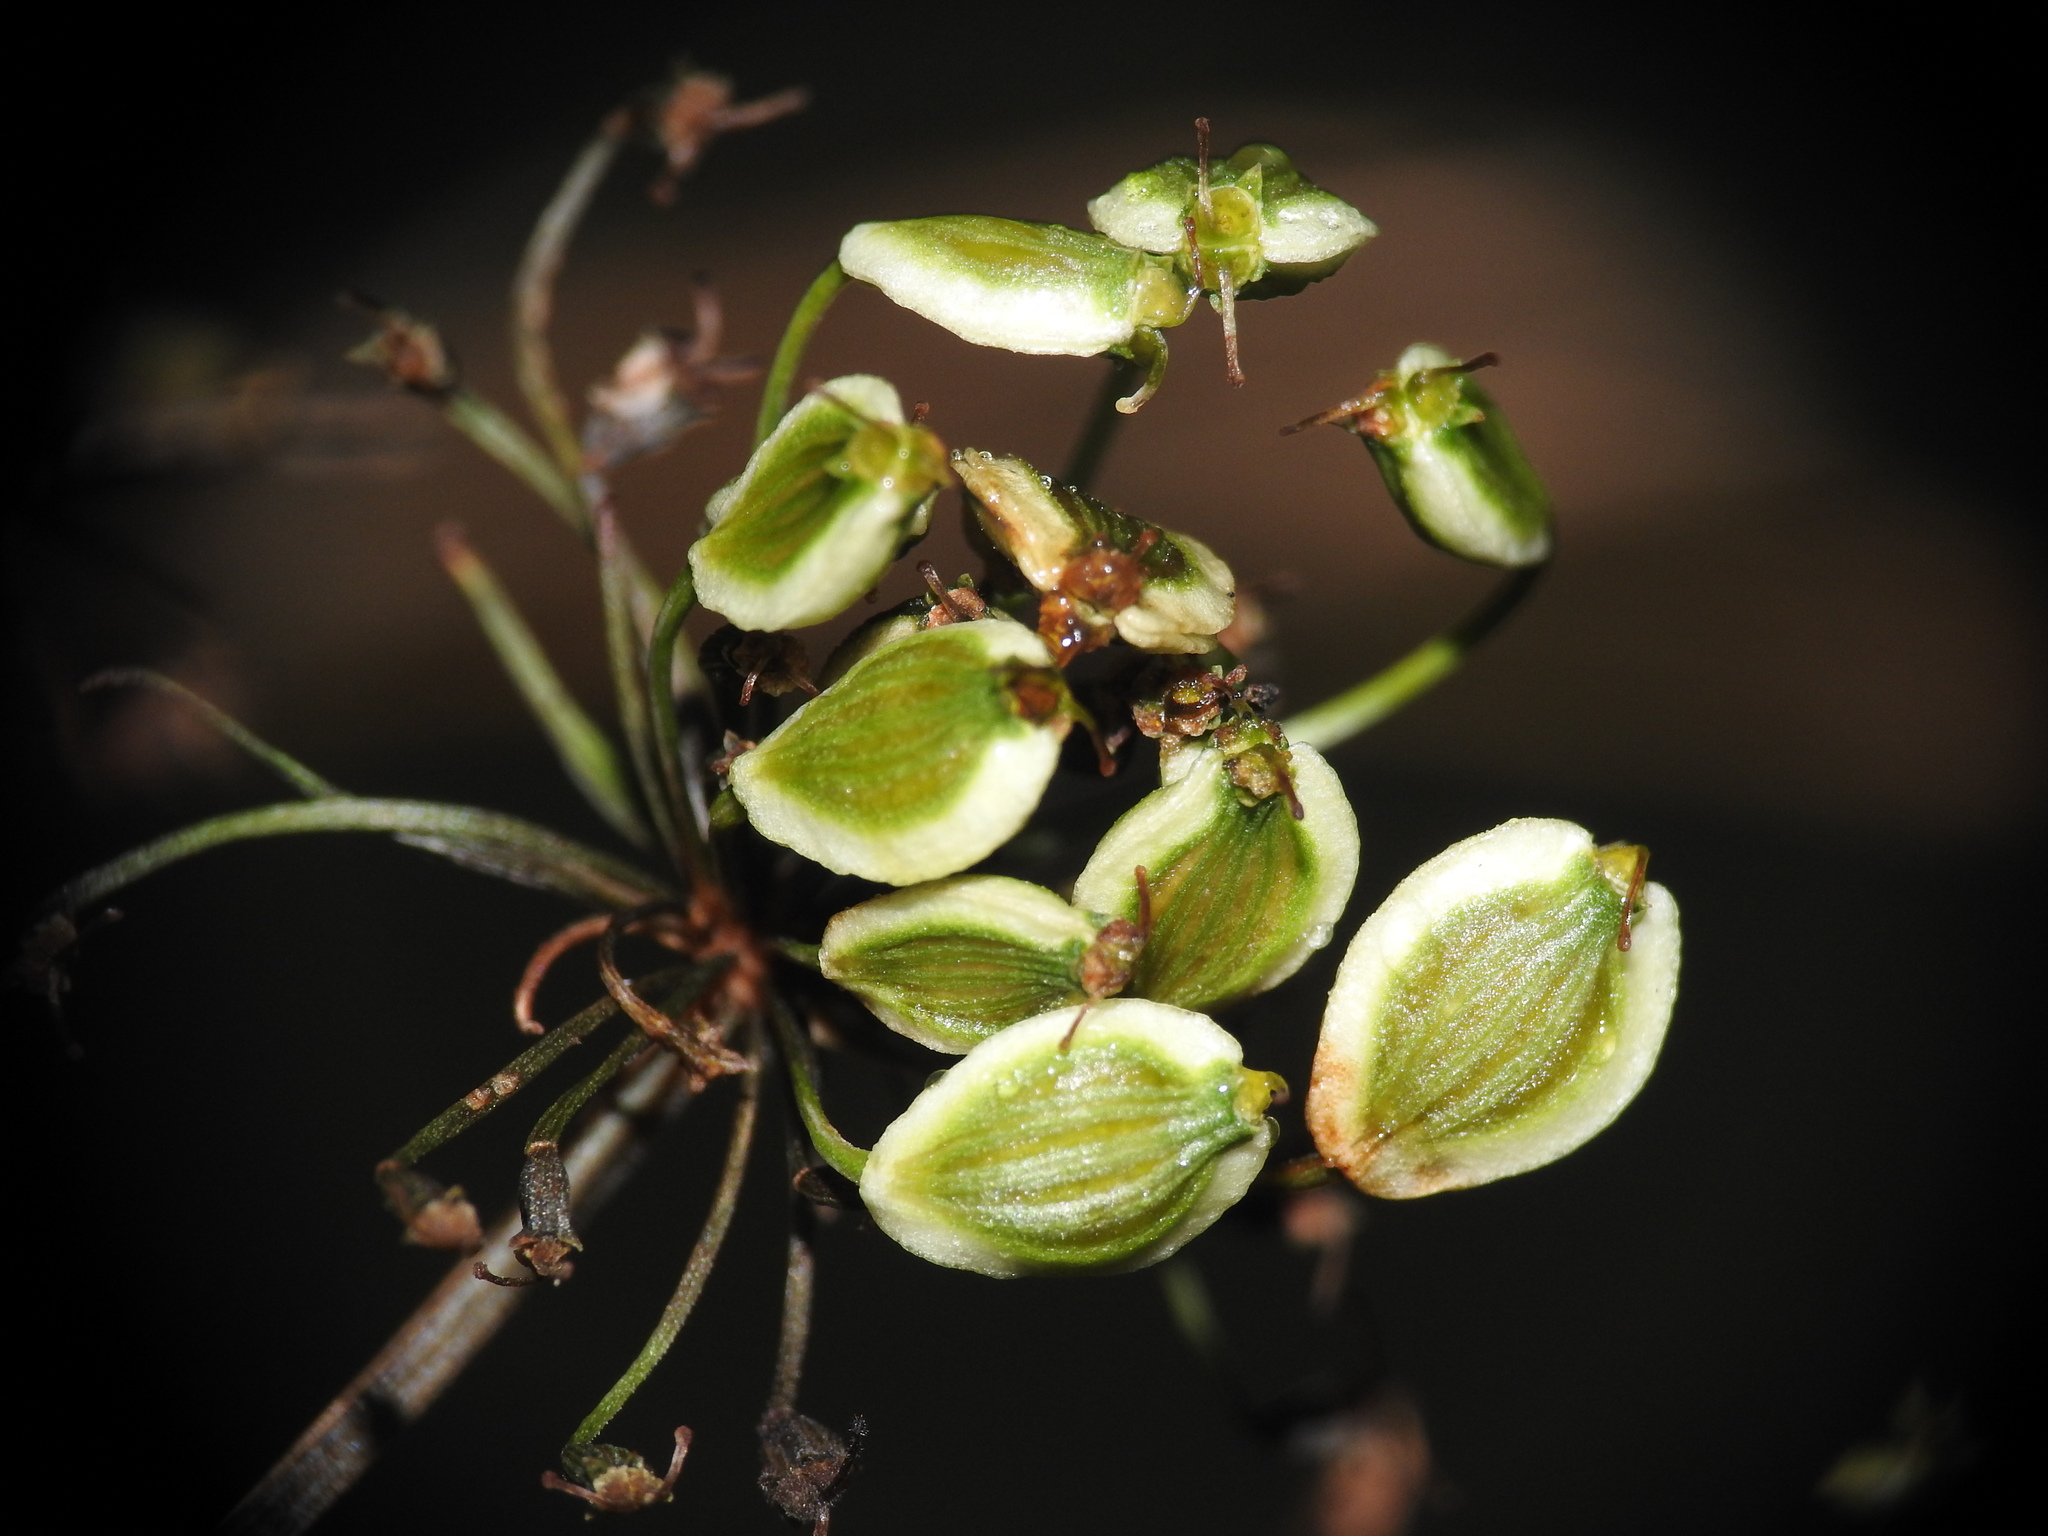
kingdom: Plantae
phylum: Tracheophyta
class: Magnoliopsida
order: Apiales
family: Apiaceae
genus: Oreoselinum
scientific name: Oreoselinum nigrum
